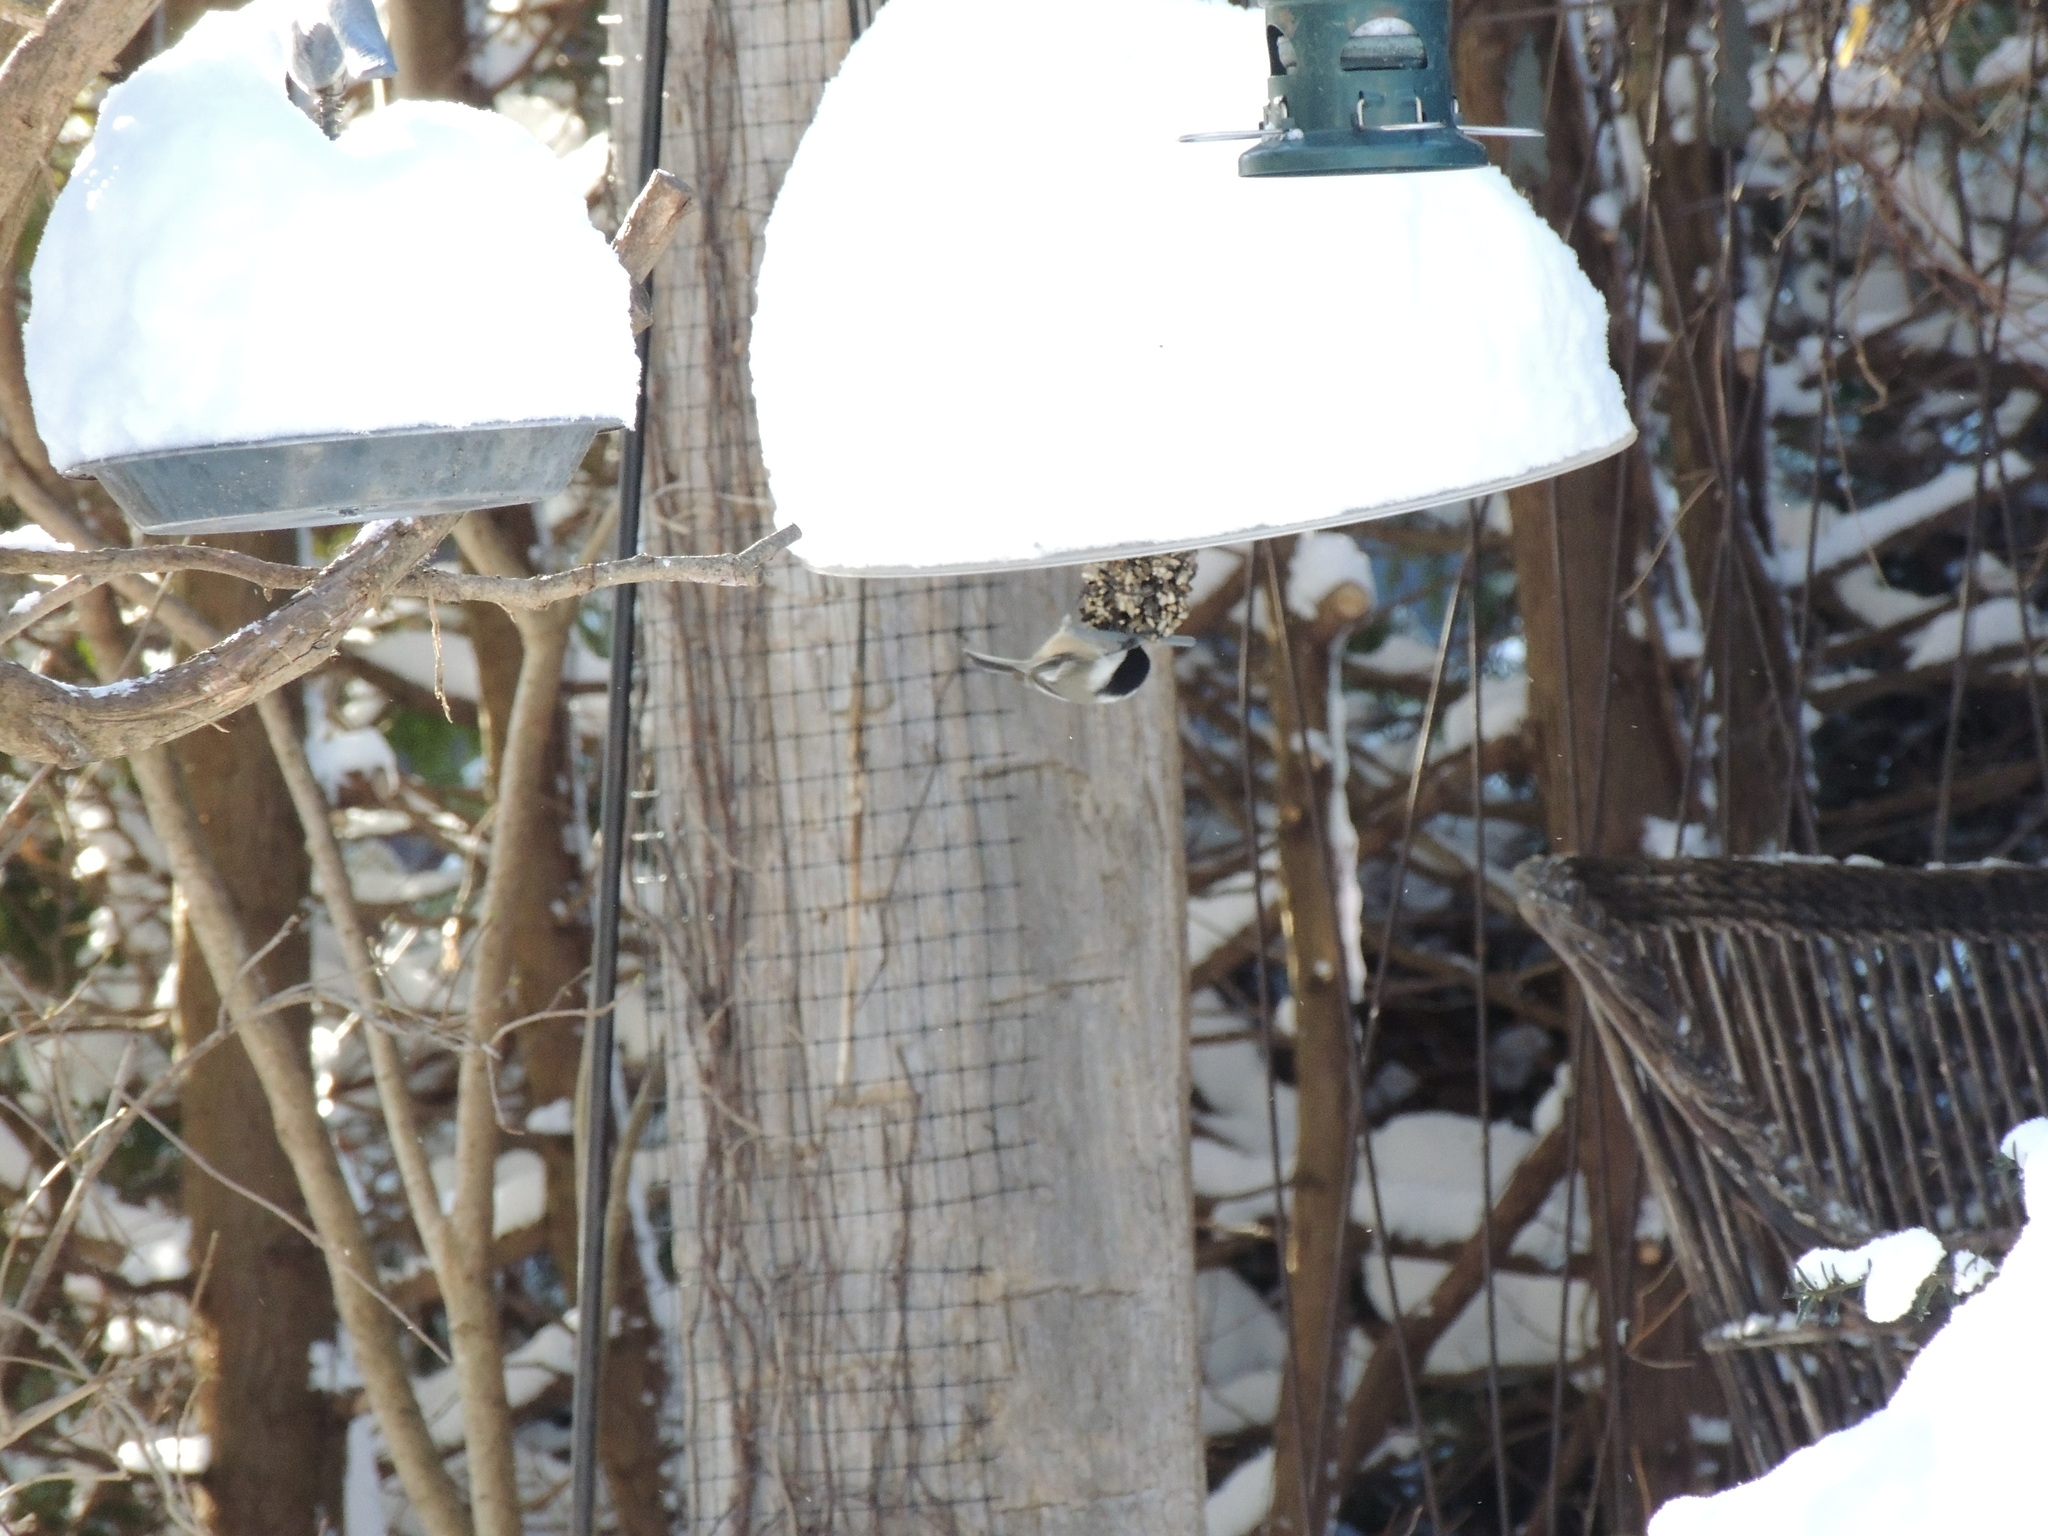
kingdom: Animalia
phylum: Chordata
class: Aves
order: Passeriformes
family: Paridae
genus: Poecile
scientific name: Poecile atricapillus
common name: Black-capped chickadee
